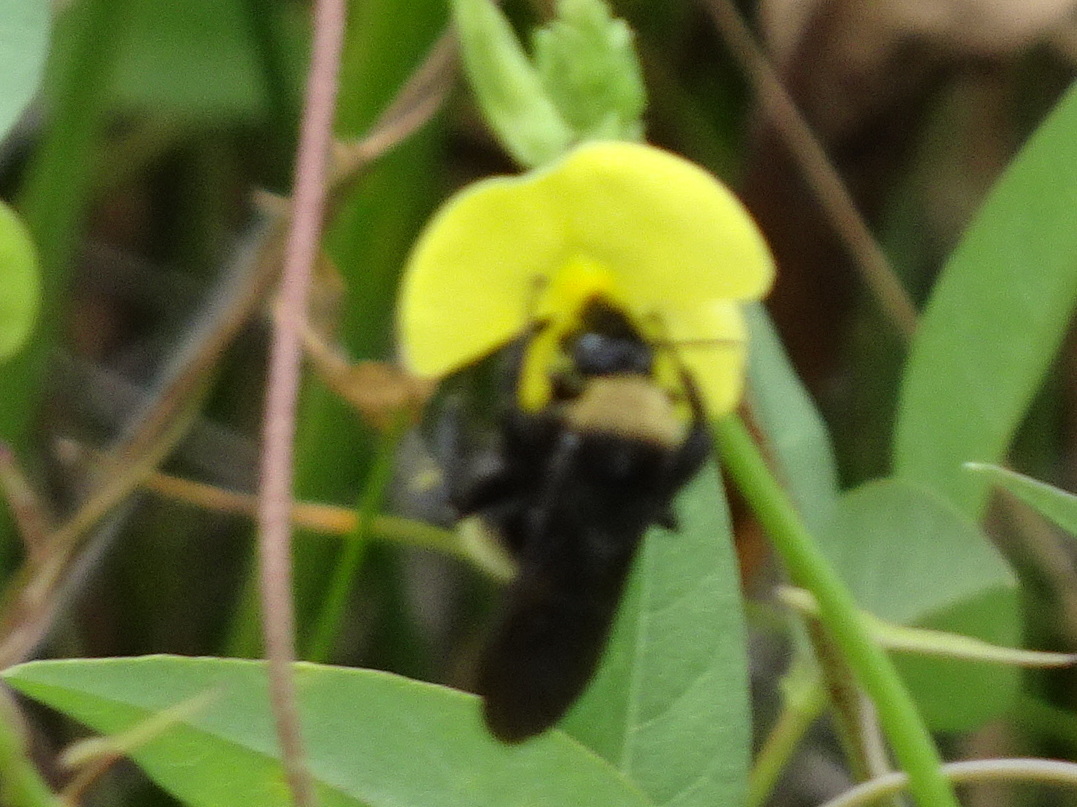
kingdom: Animalia
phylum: Arthropoda
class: Insecta
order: Hymenoptera
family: Apidae
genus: Bombus
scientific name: Bombus pensylvanicus
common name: Bumble bee
